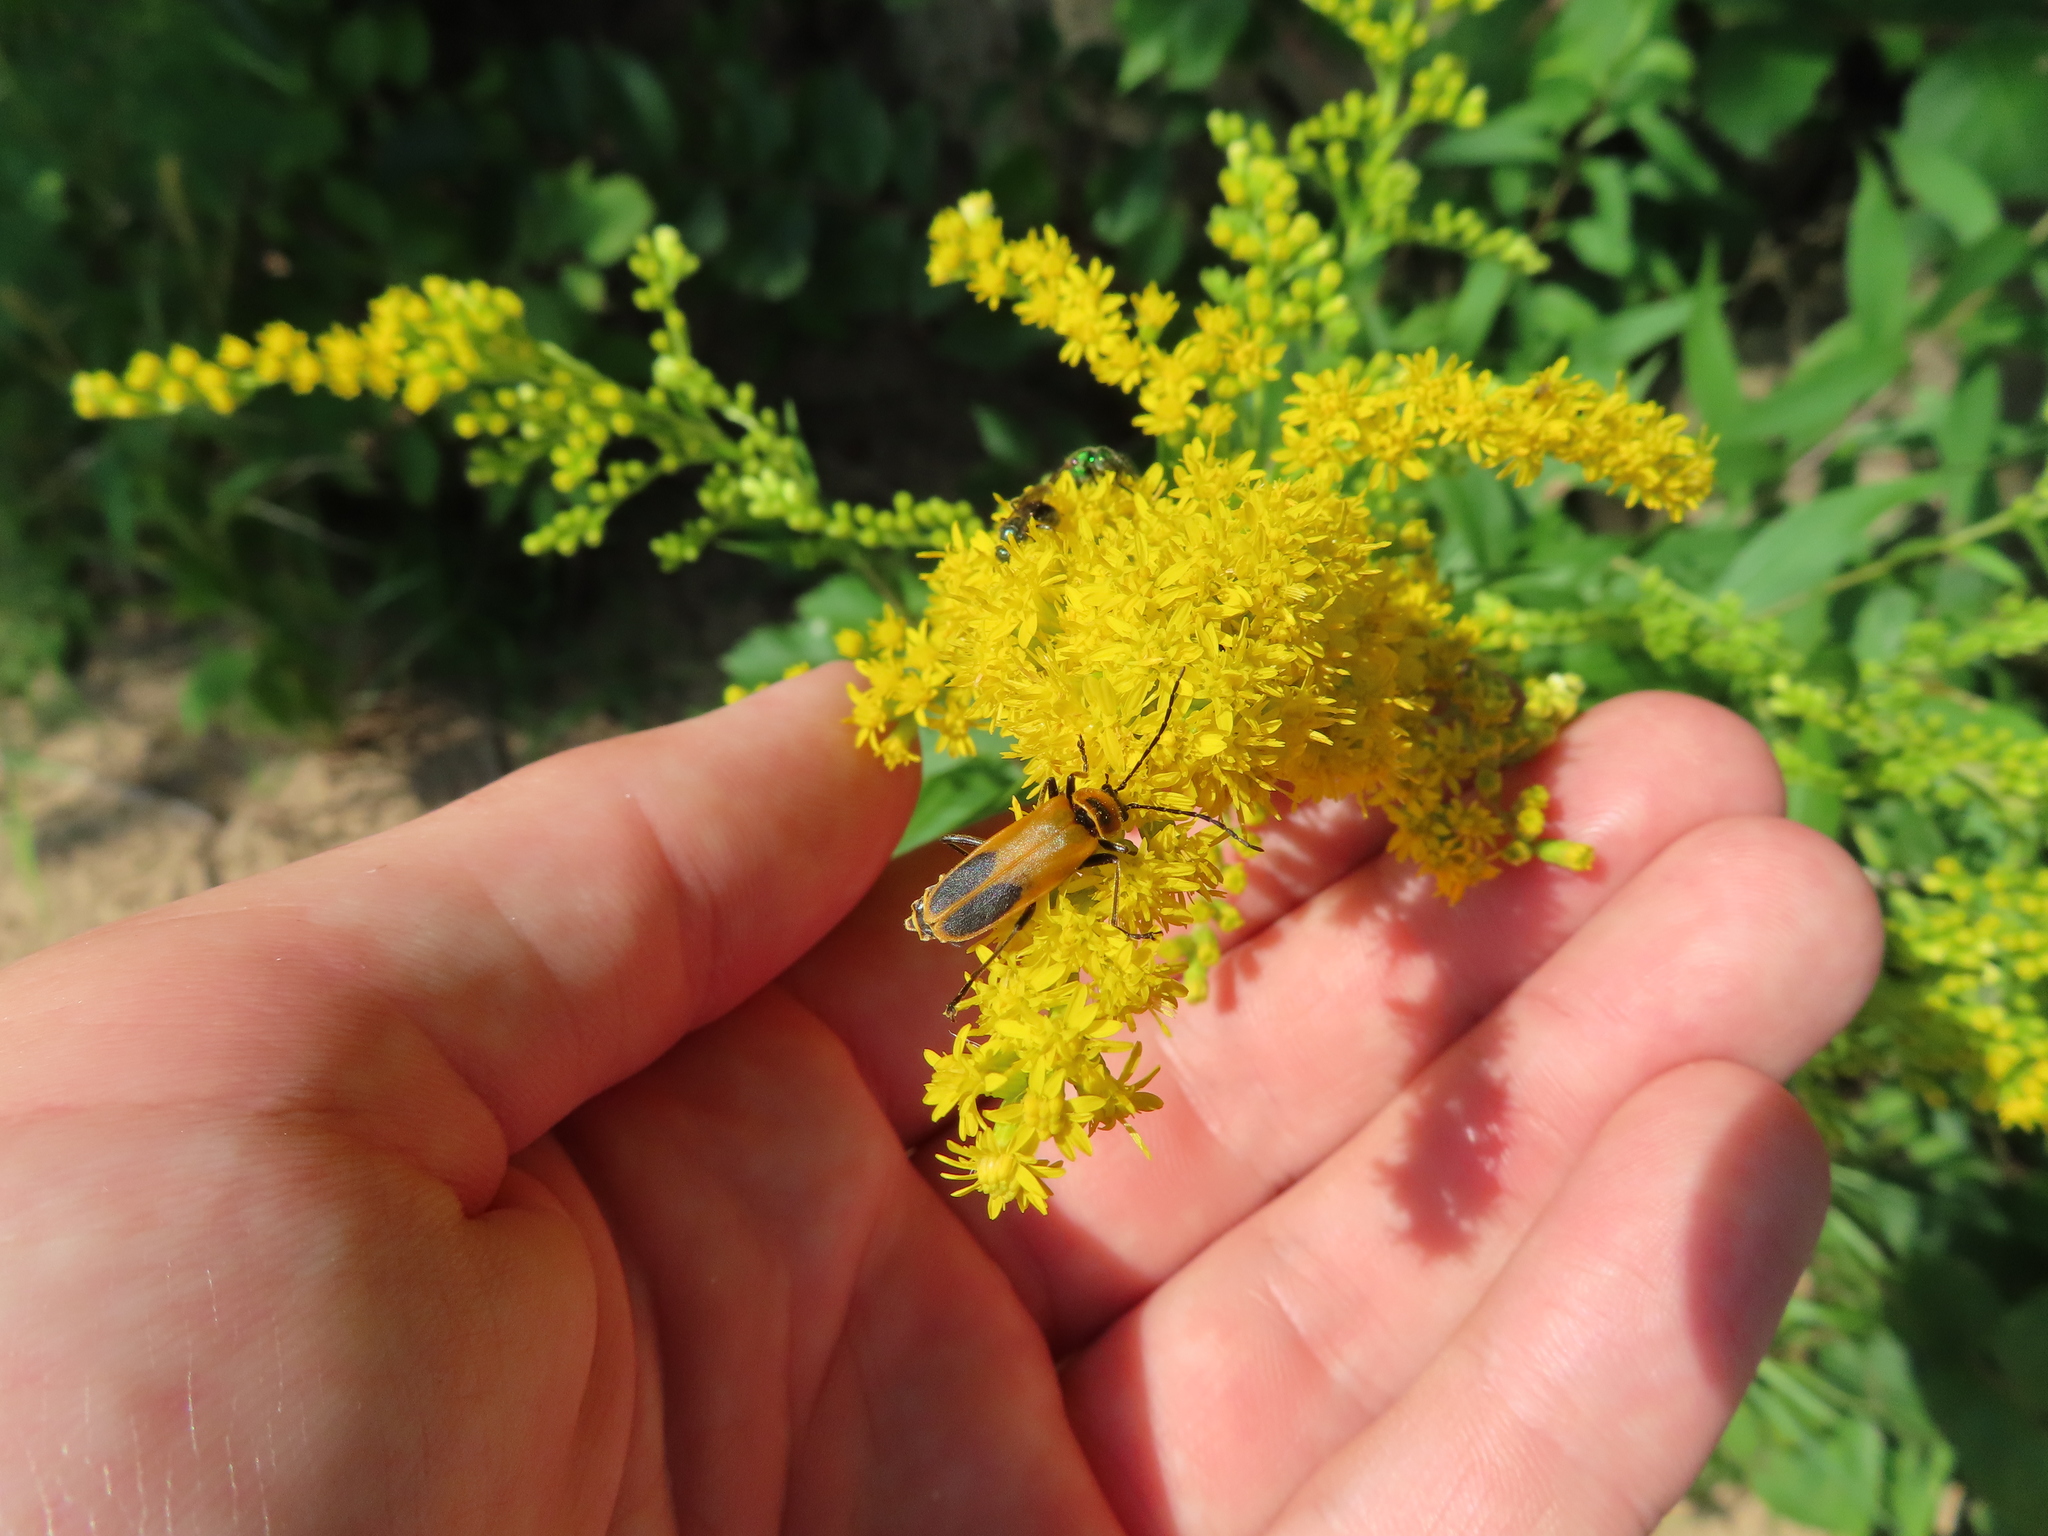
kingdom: Animalia
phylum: Arthropoda
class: Insecta
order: Coleoptera
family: Cantharidae
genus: Chauliognathus
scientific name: Chauliognathus pensylvanicus
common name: Goldenrod soldier beetle
